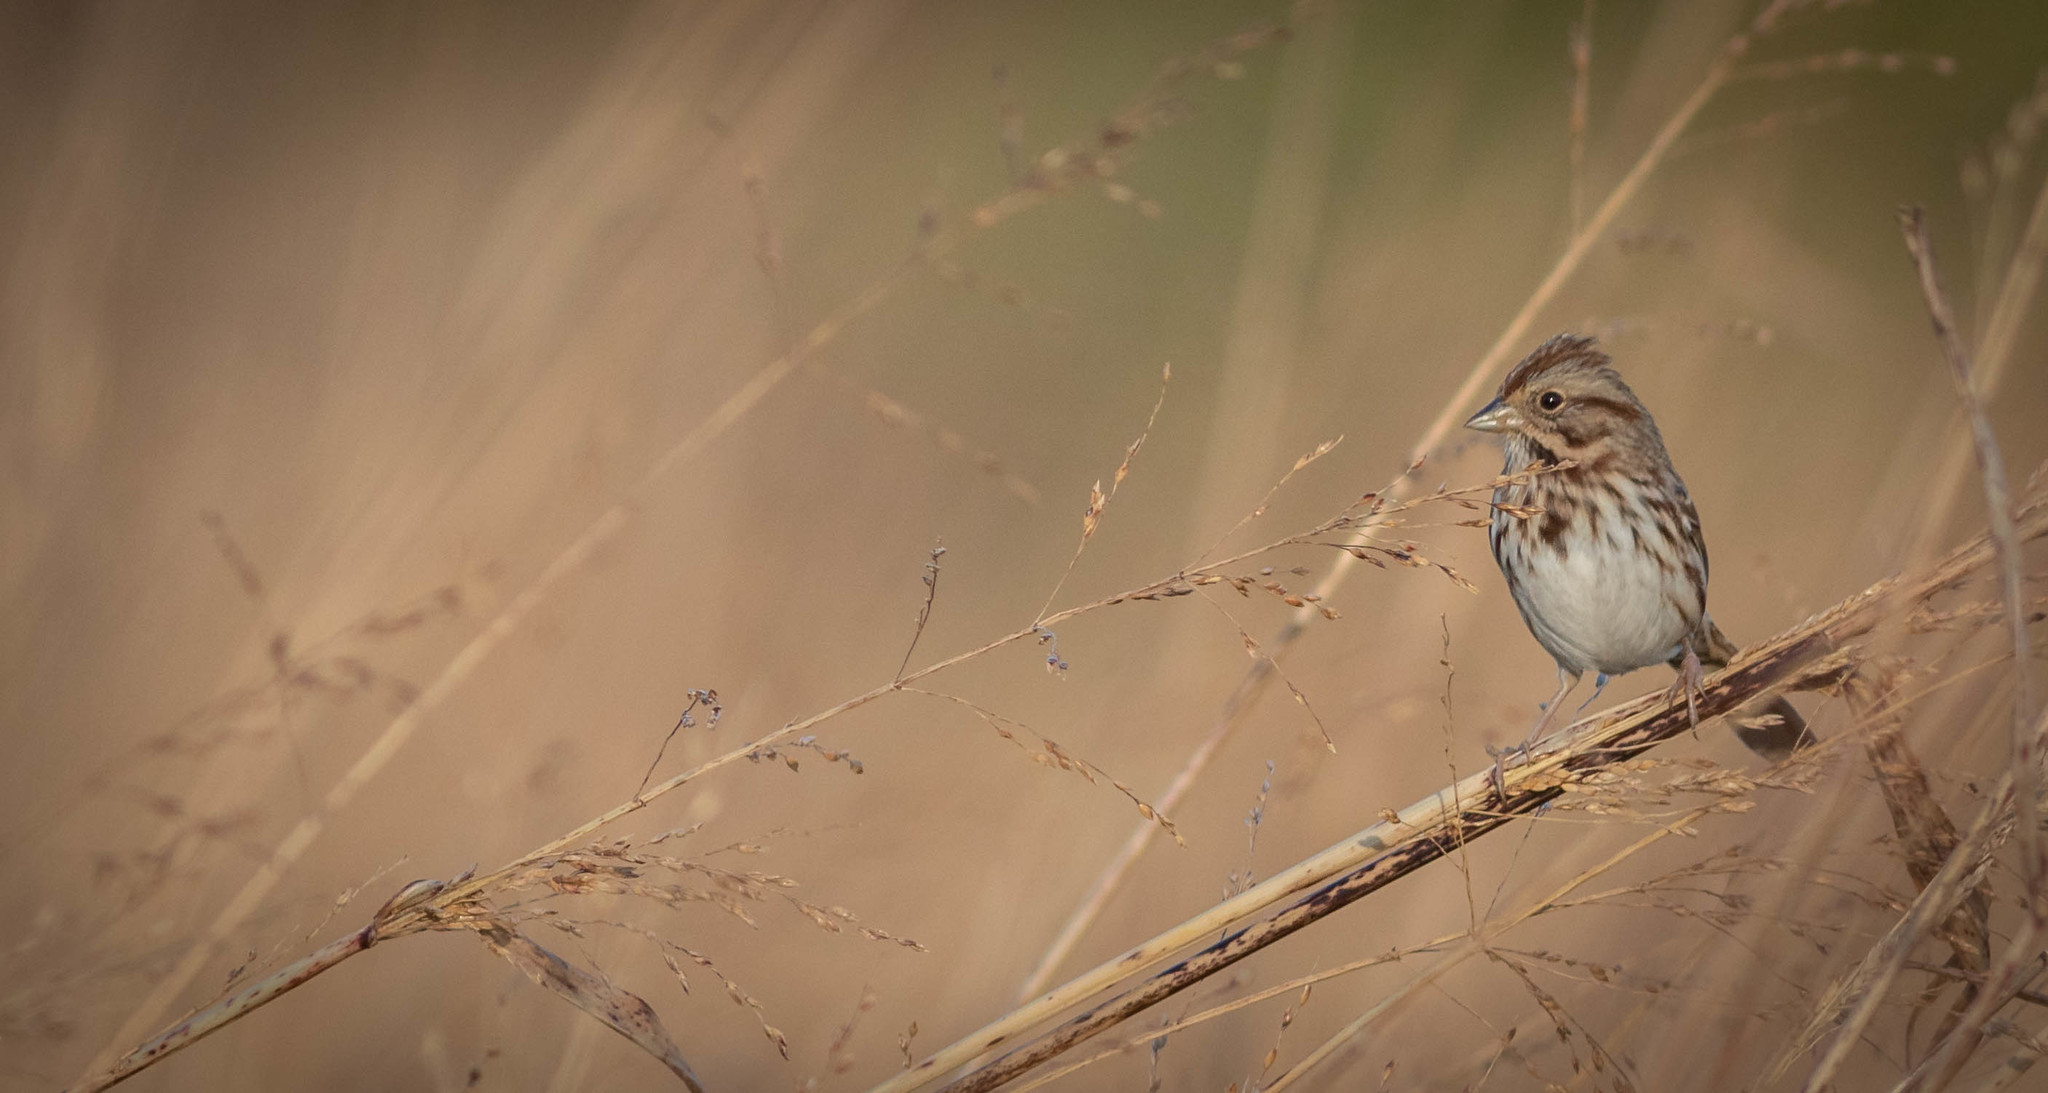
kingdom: Animalia
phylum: Chordata
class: Aves
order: Passeriformes
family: Passerellidae
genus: Melospiza
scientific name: Melospiza melodia
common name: Song sparrow
